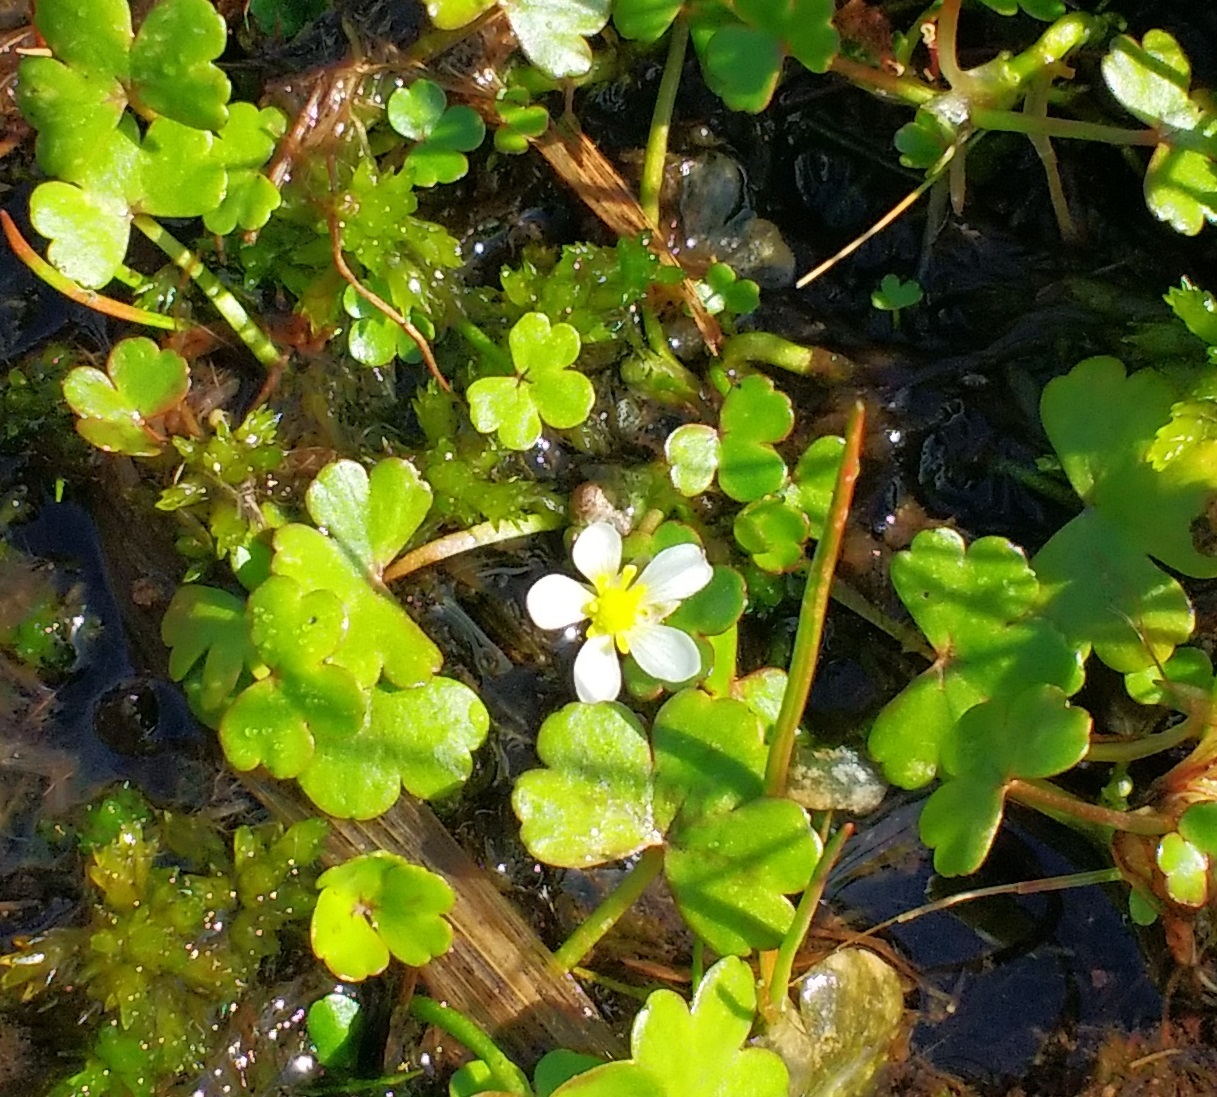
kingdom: Plantae
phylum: Tracheophyta
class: Magnoliopsida
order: Ranunculales
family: Ranunculaceae
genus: Ranunculus
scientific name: Ranunculus omiophyllus
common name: Round-leaved crowfoot
